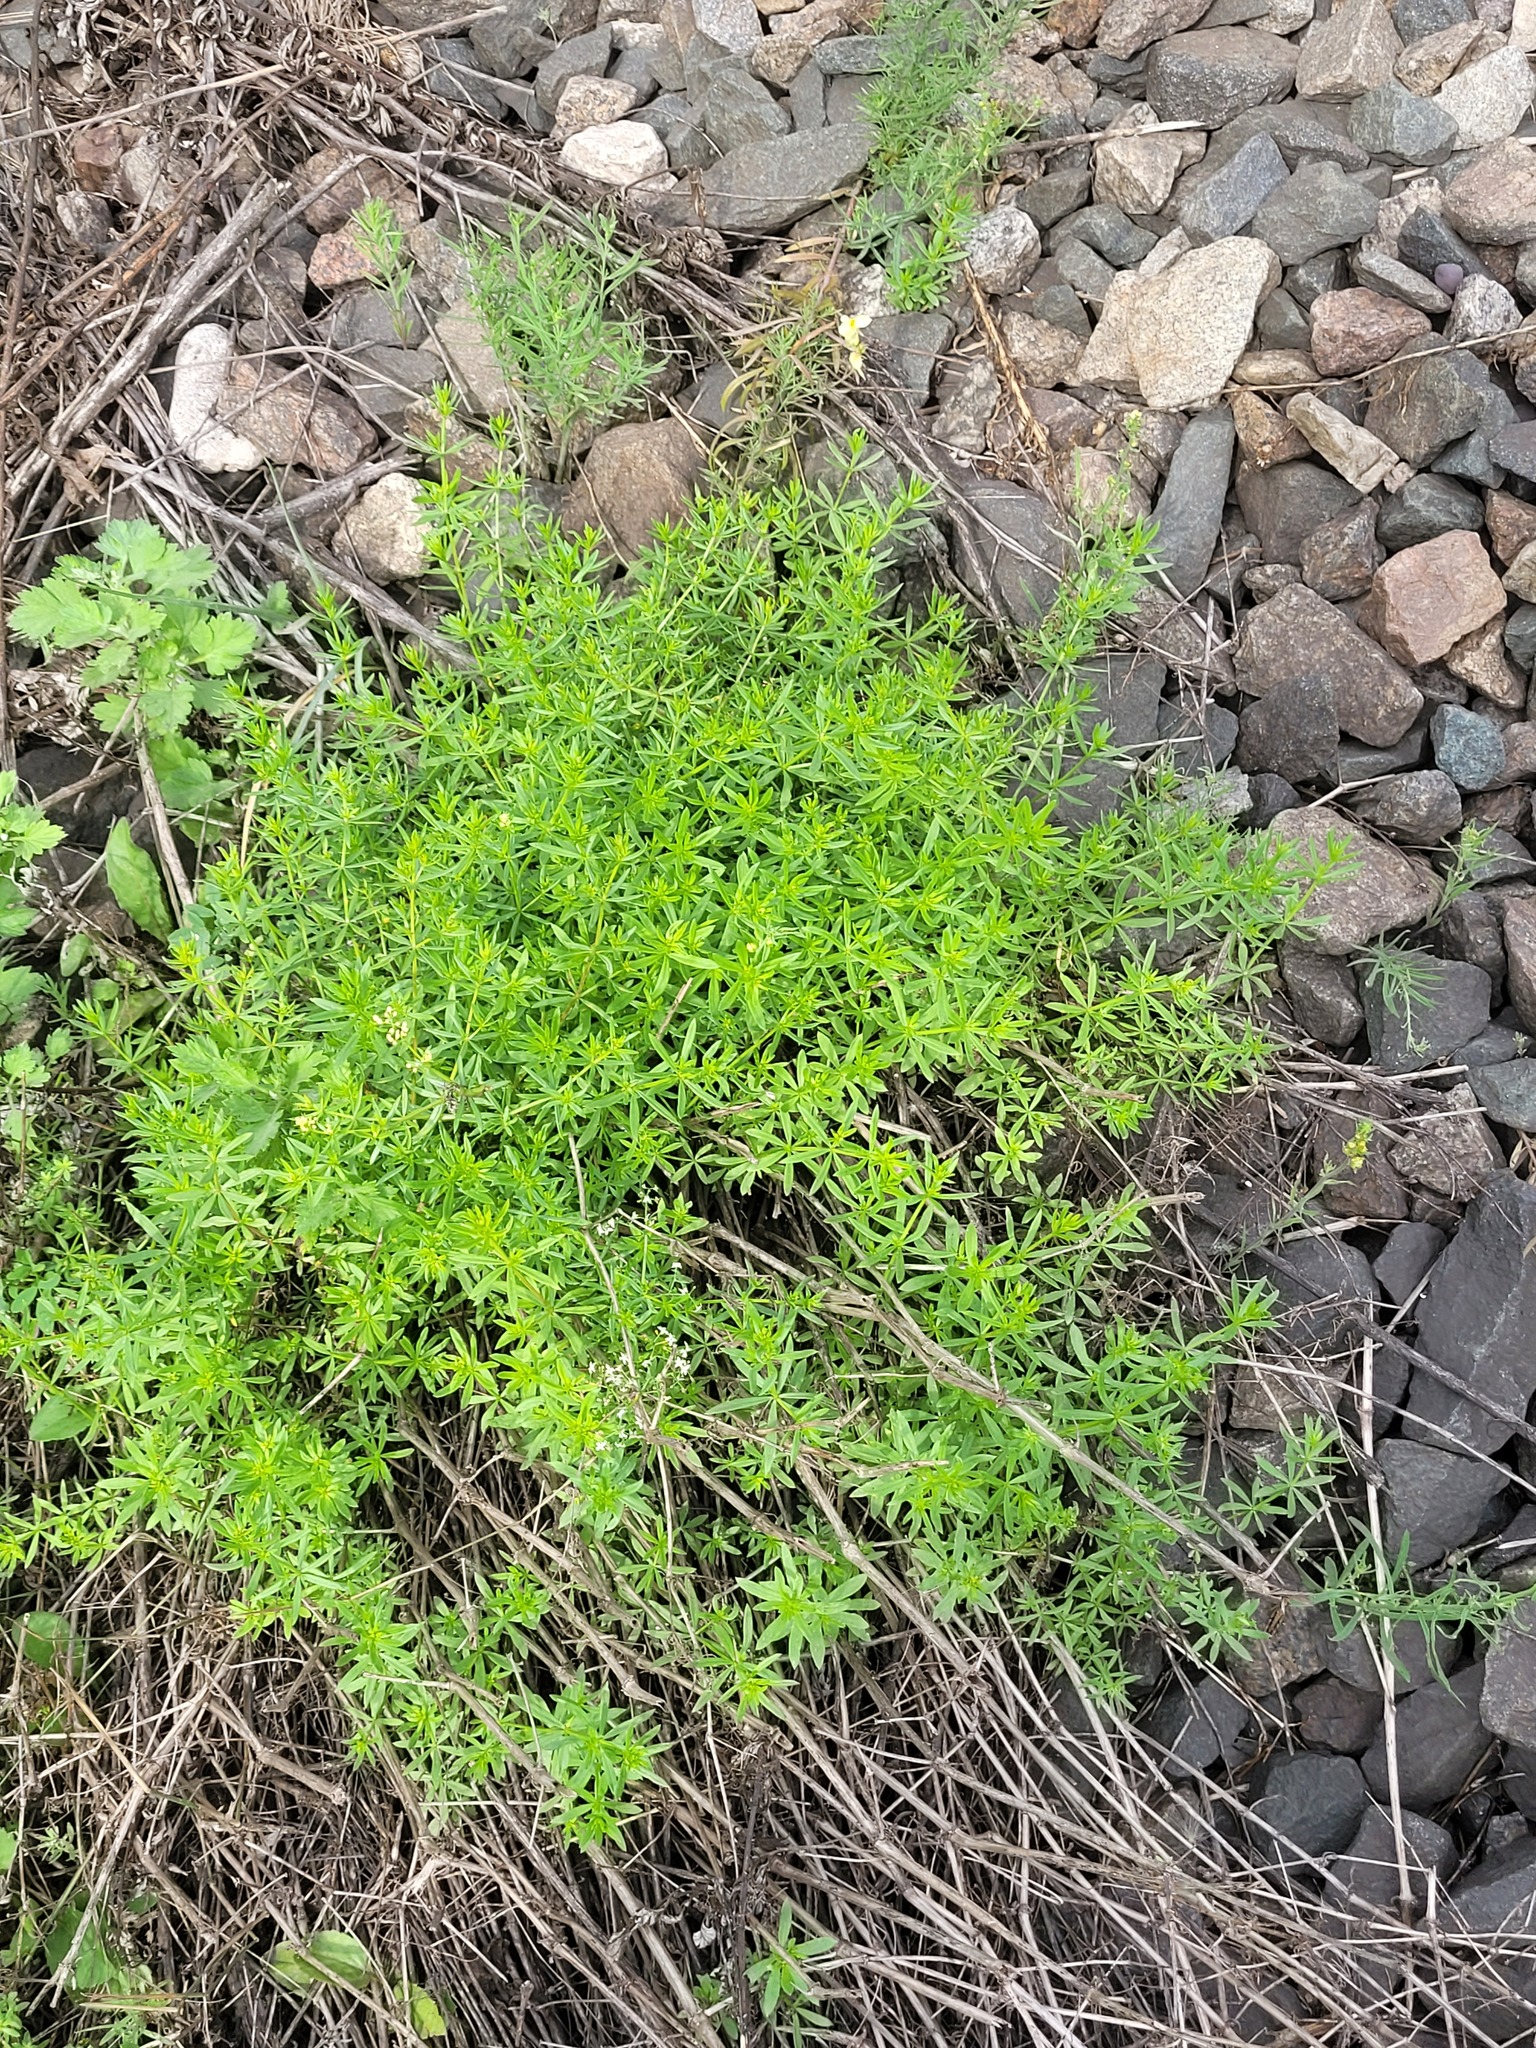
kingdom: Plantae
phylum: Tracheophyta
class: Magnoliopsida
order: Gentianales
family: Rubiaceae
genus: Galium
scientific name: Galium mollugo
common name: Hedge bedstraw
